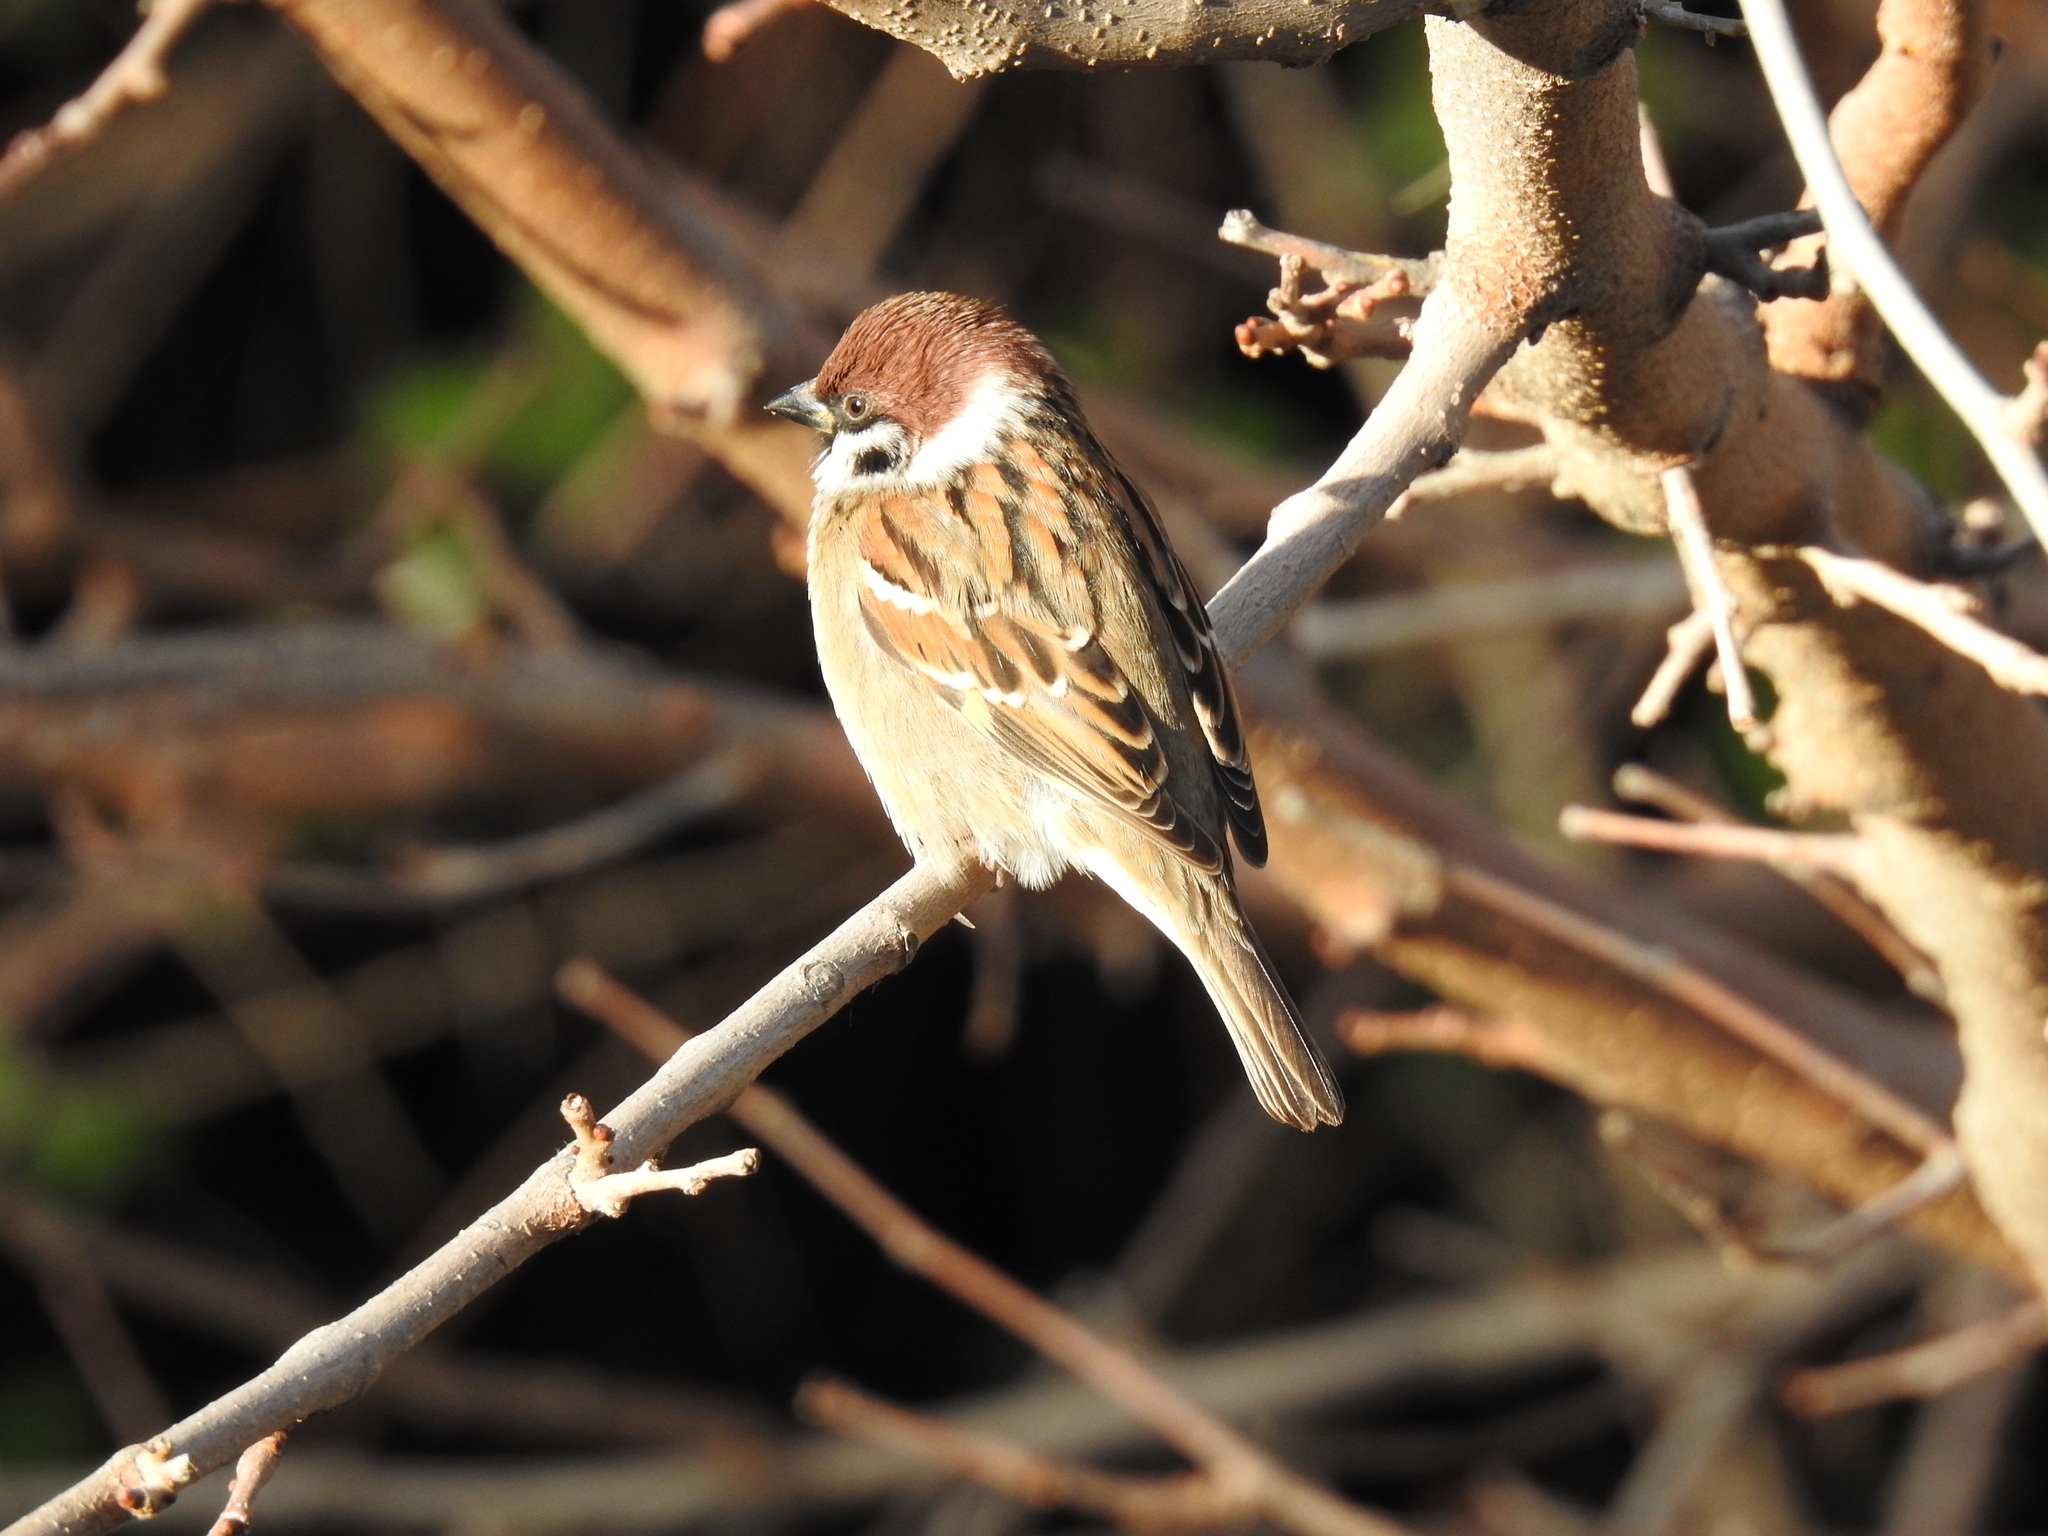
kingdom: Animalia
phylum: Chordata
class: Aves
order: Passeriformes
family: Passeridae
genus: Passer
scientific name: Passer montanus
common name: Eurasian tree sparrow
